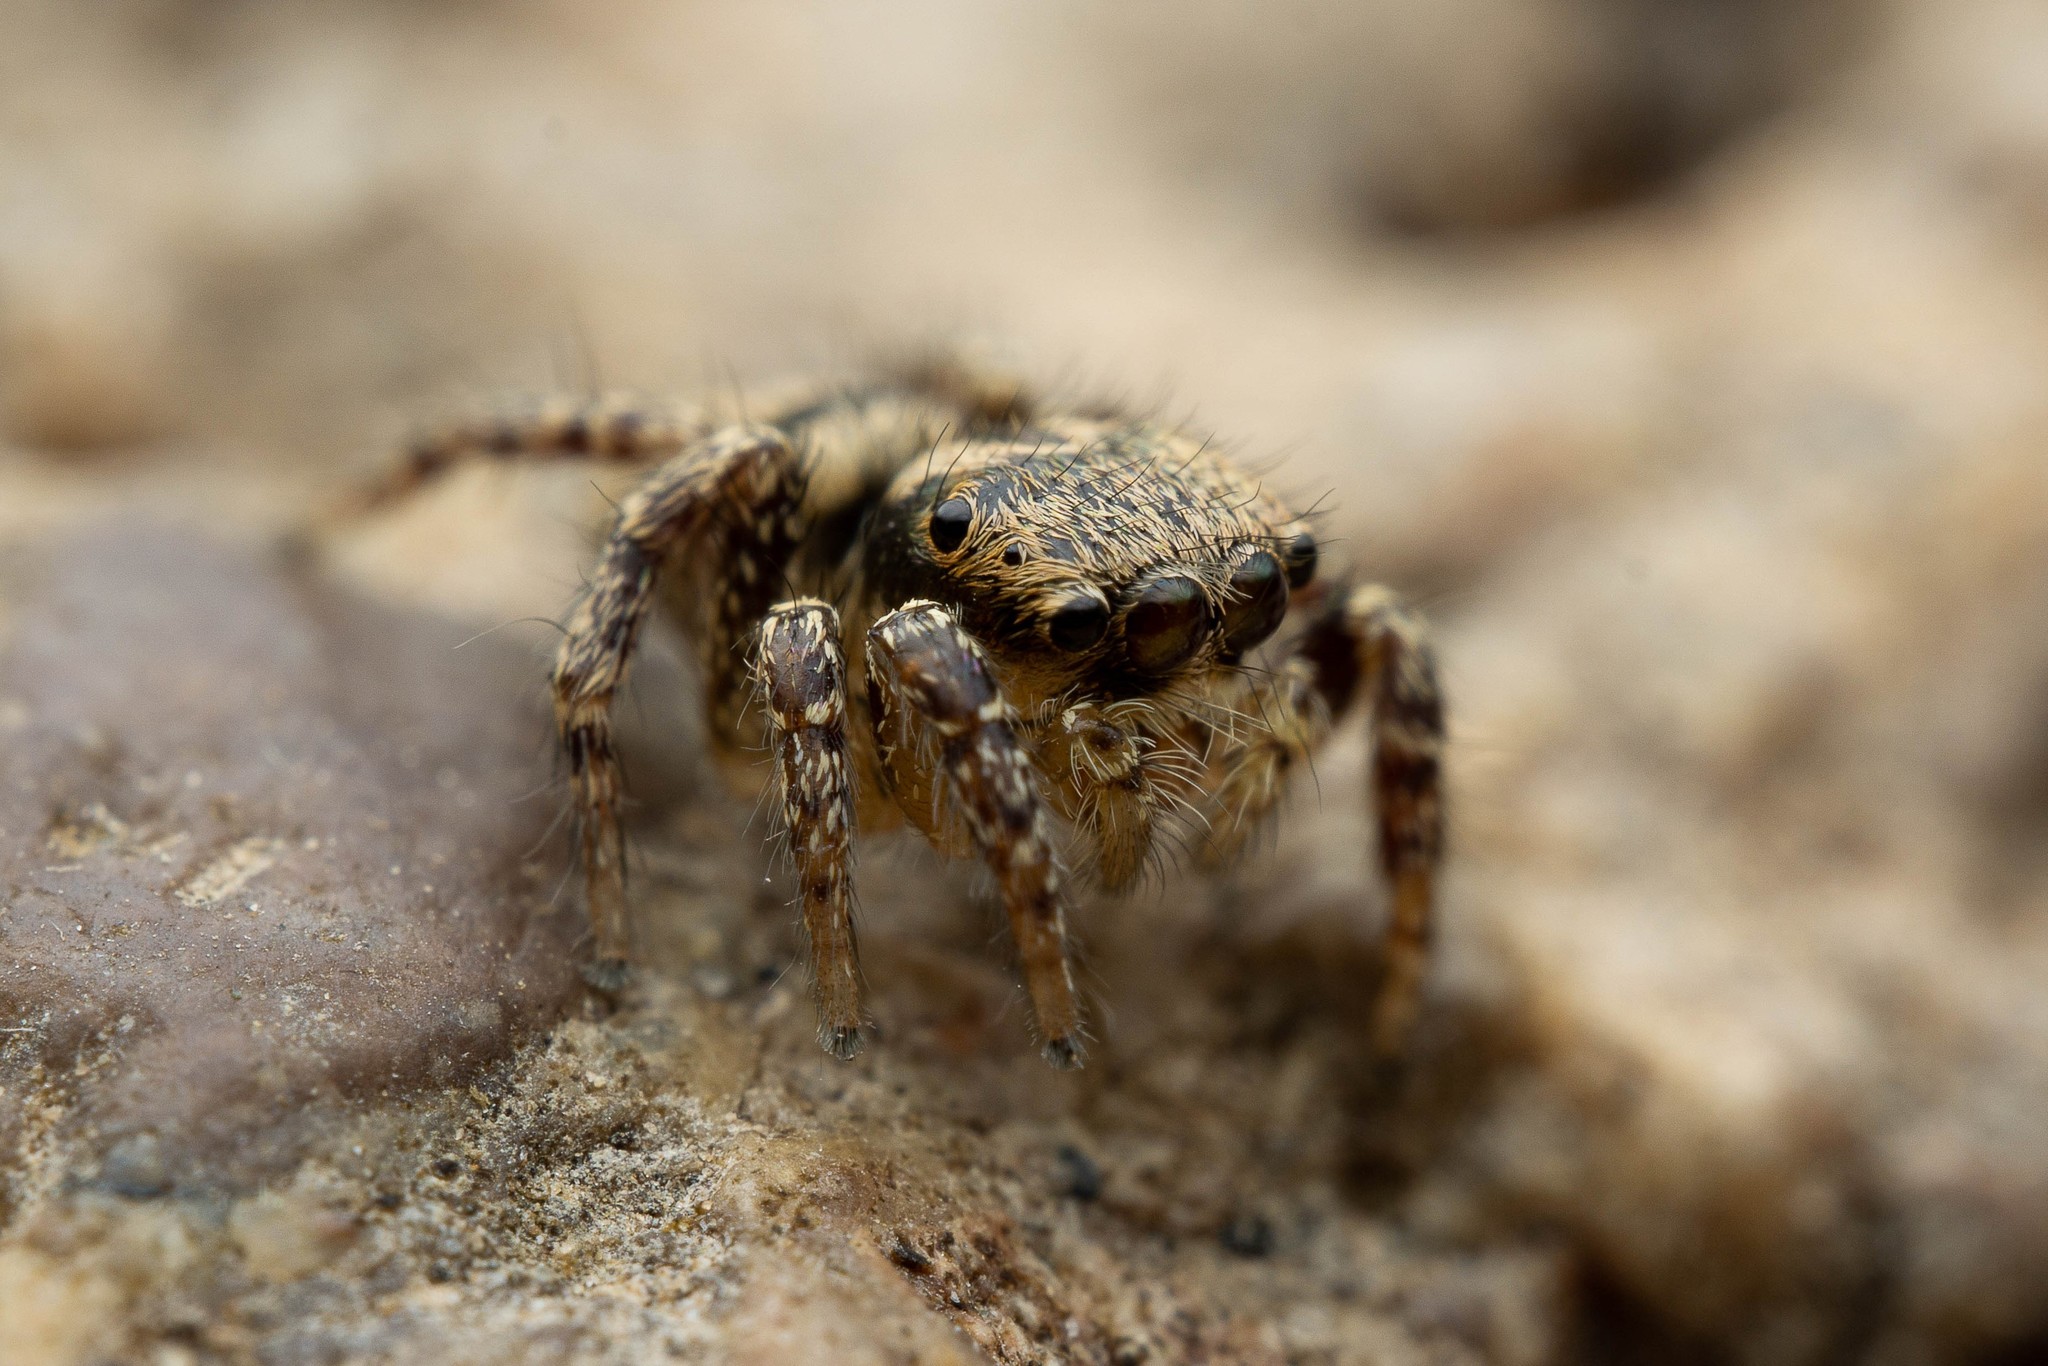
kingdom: Animalia
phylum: Arthropoda
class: Arachnida
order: Araneae
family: Salticidae
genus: Habronattus
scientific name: Habronattus hallani
